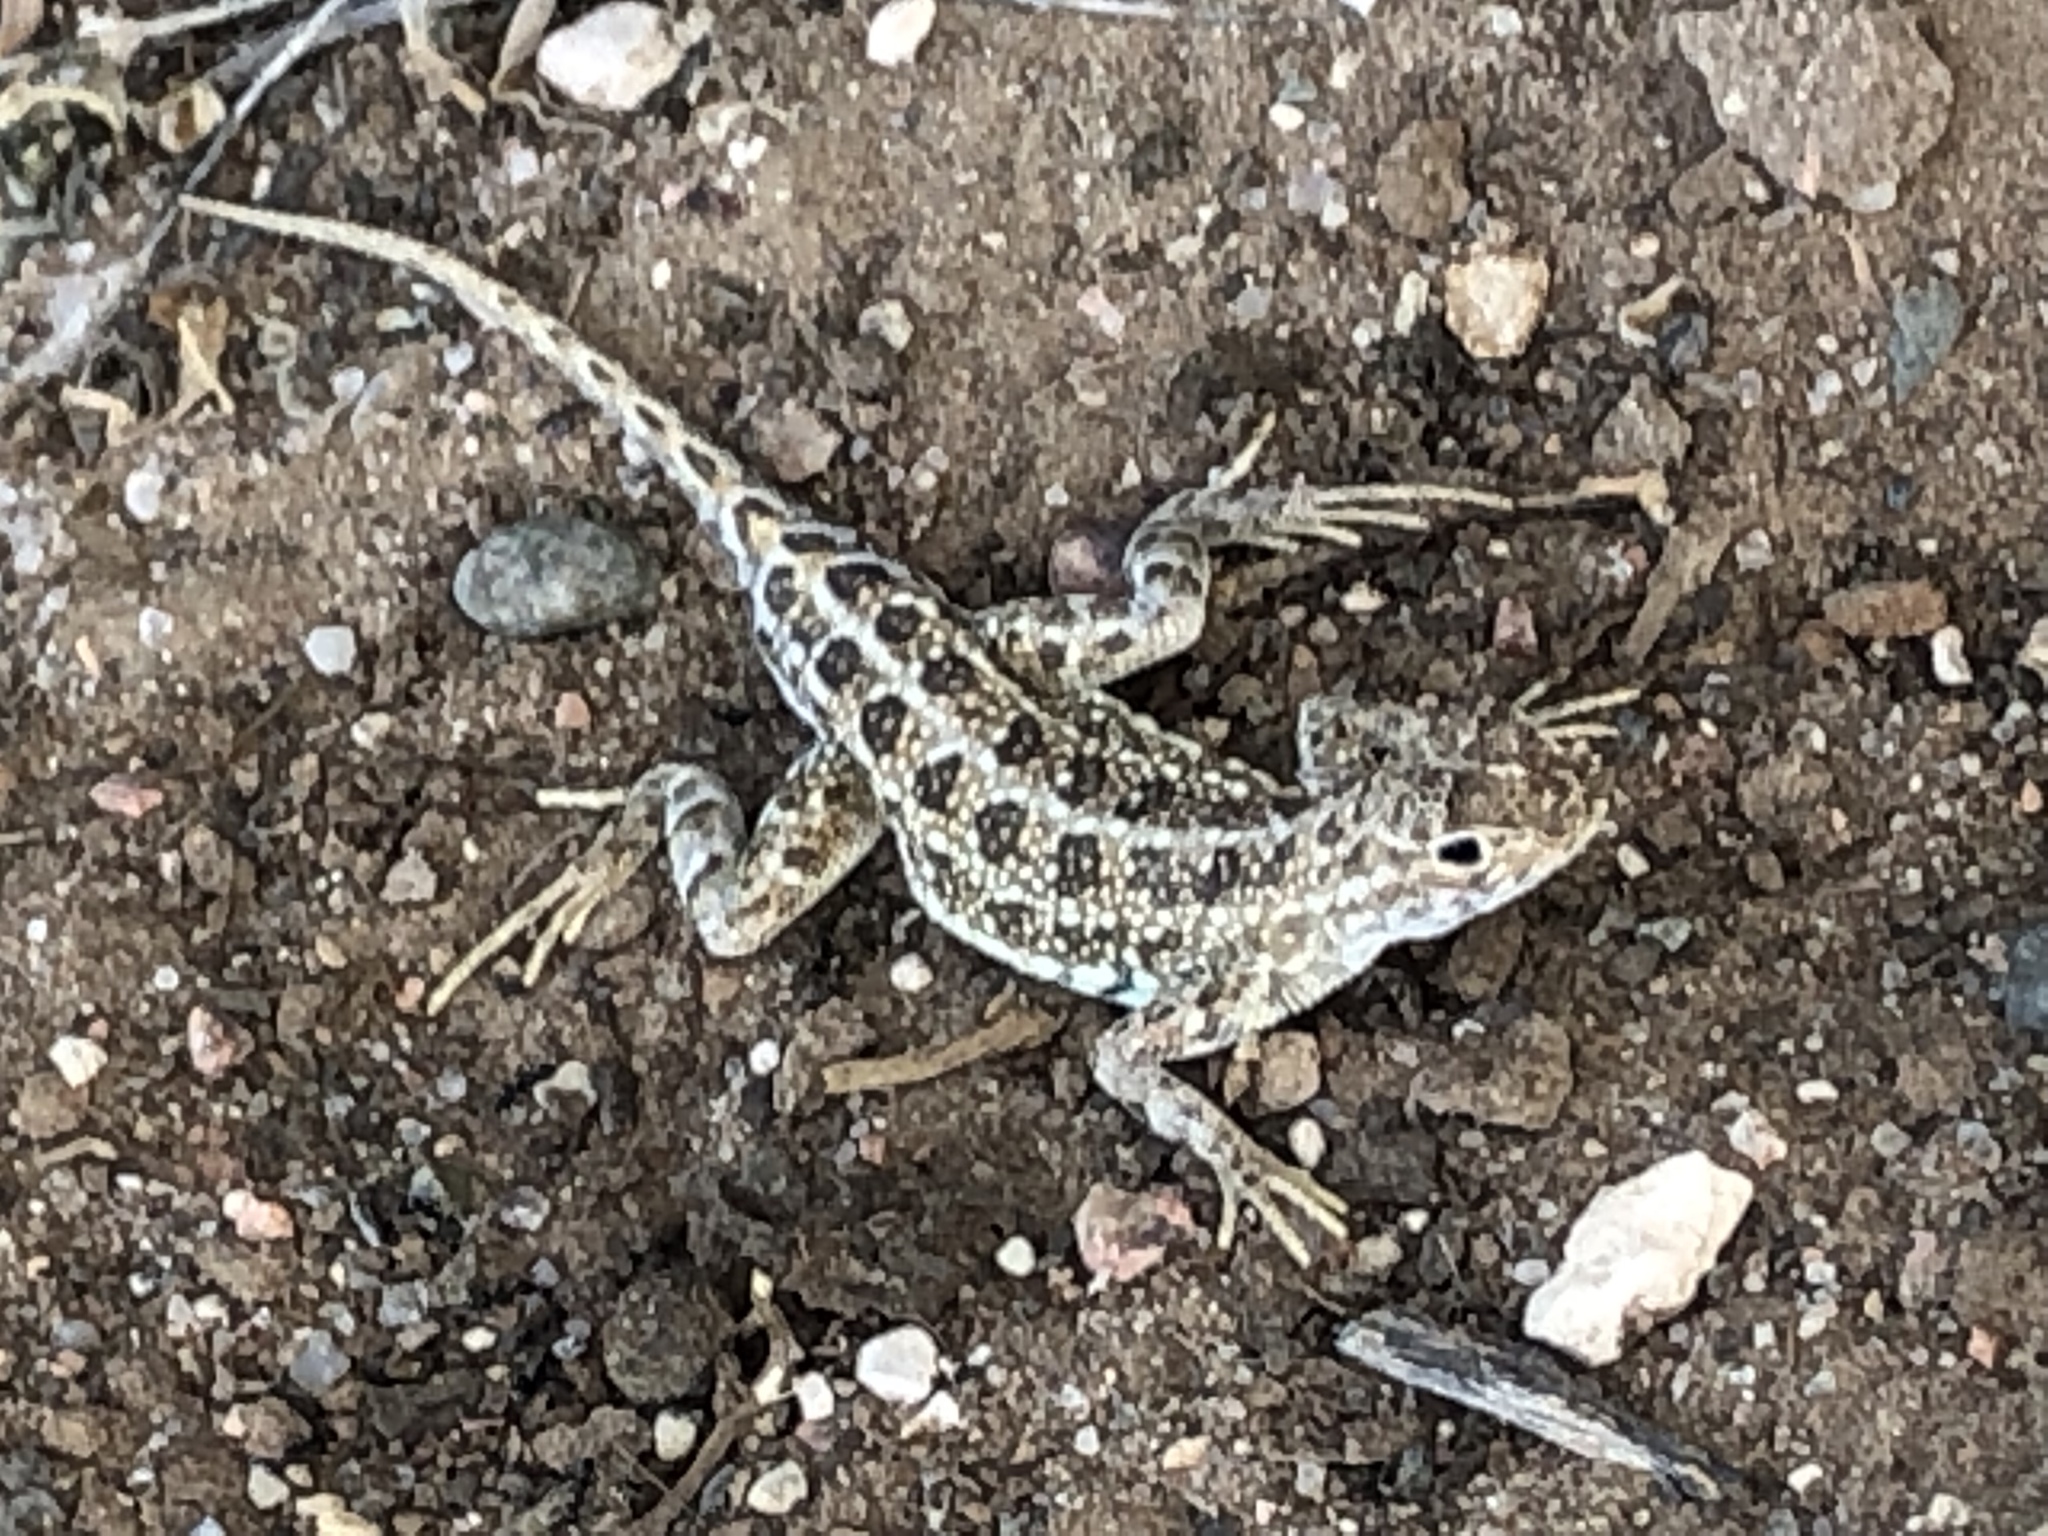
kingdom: Animalia
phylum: Chordata
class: Squamata
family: Phrynosomatidae
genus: Holbrookia
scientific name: Holbrookia maculata
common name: Lesser earless lizard
